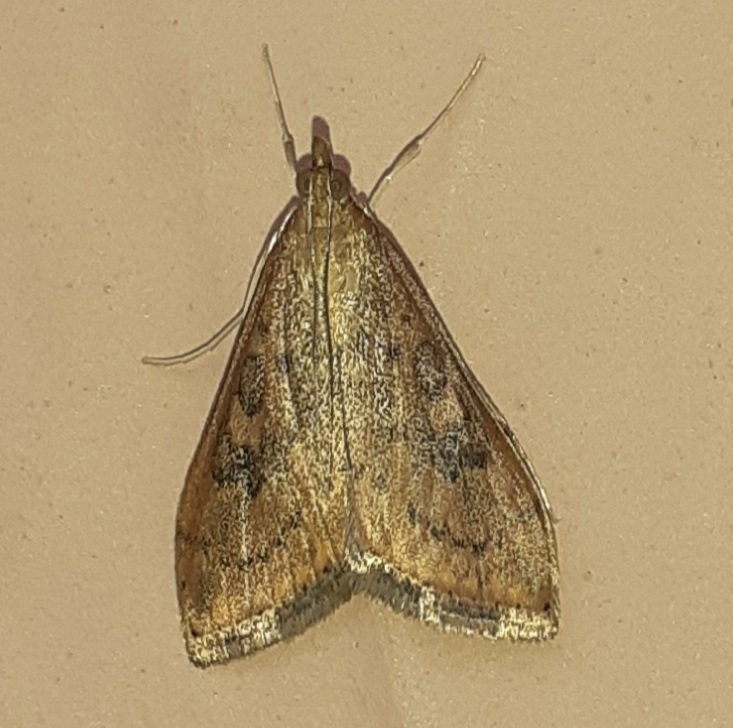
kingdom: Animalia
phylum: Arthropoda
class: Insecta
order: Lepidoptera
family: Crambidae
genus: Udea
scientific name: Udea ferrugalis
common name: Rusty dot
